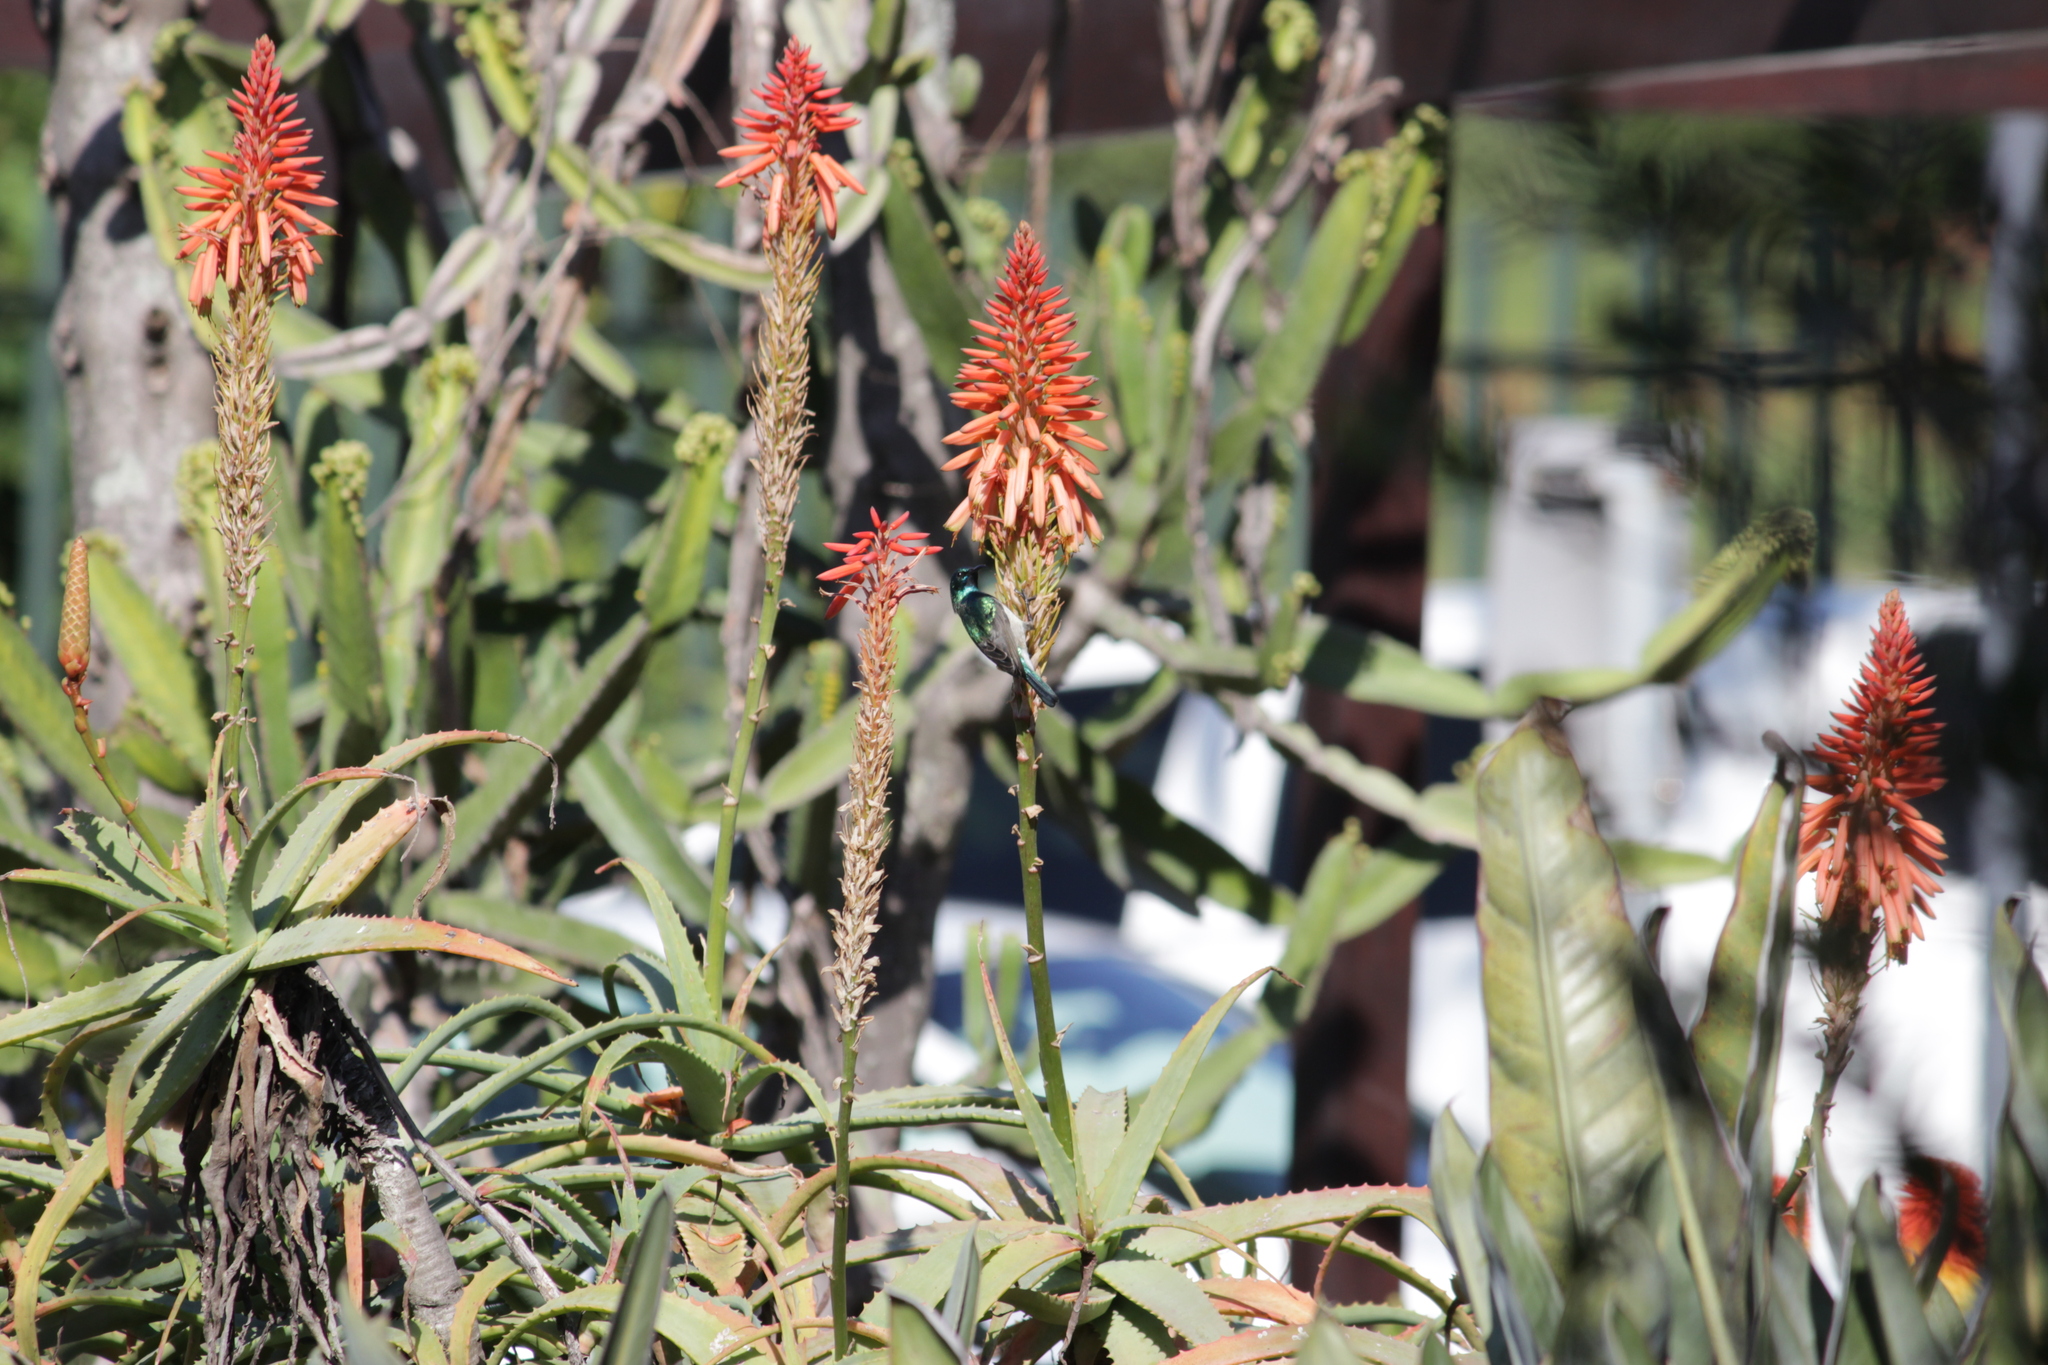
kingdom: Animalia
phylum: Chordata
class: Aves
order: Passeriformes
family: Nectariniidae
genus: Cinnyris
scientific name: Cinnyris talatala
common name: White-bellied sunbird
